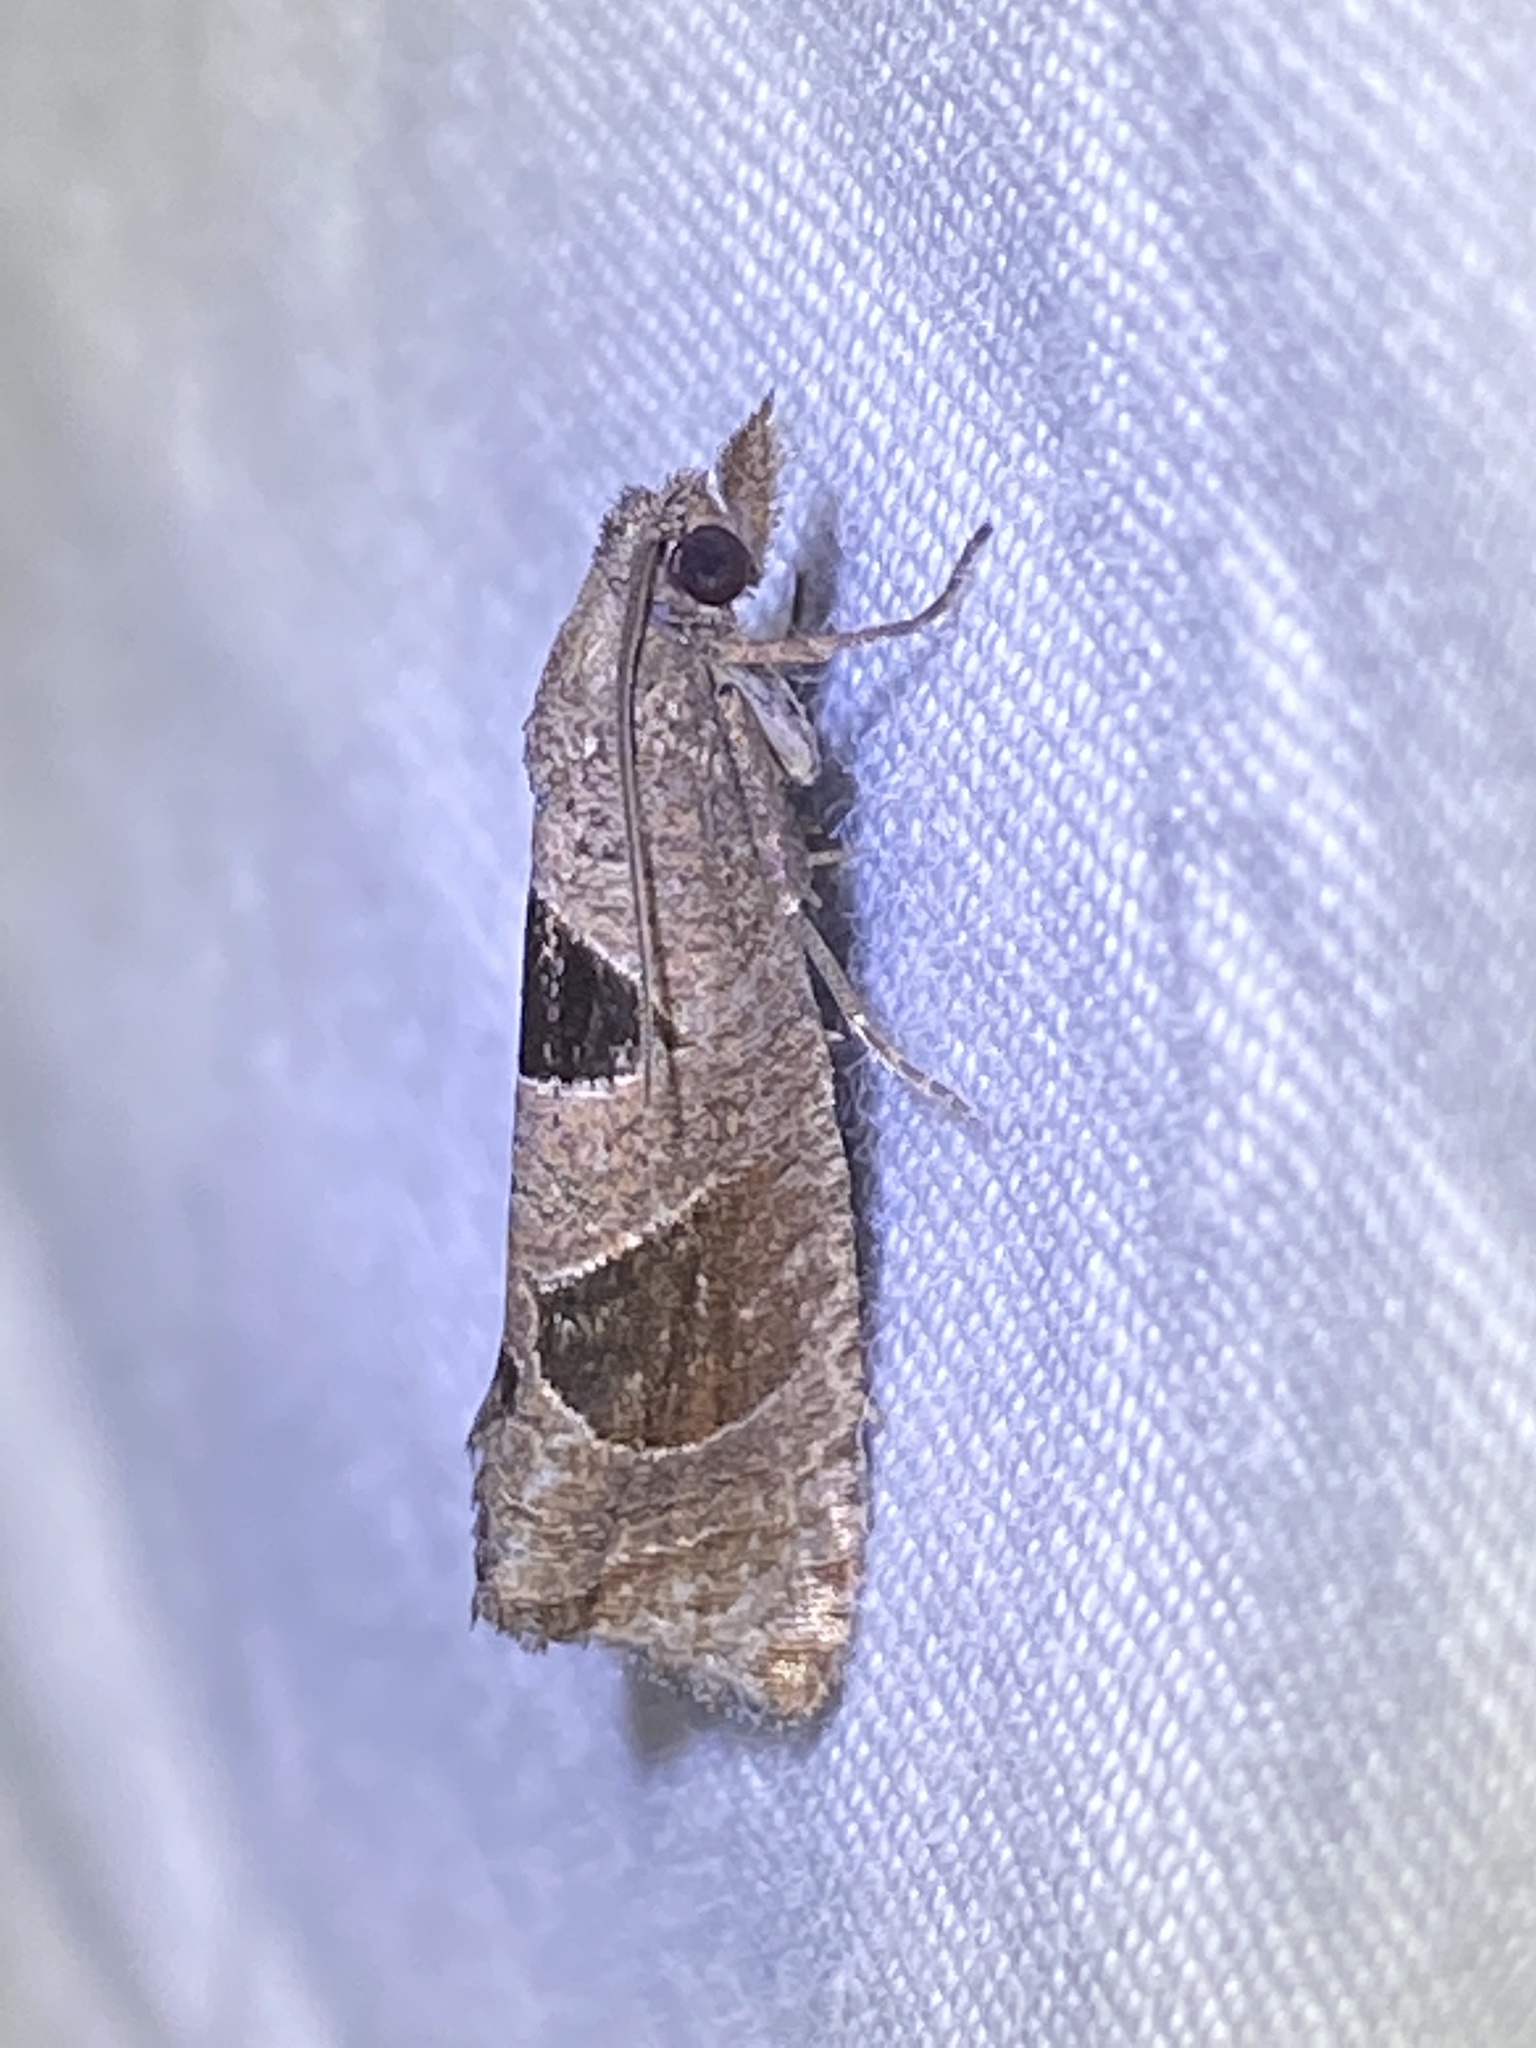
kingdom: Animalia
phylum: Arthropoda
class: Insecta
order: Lepidoptera
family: Tortricidae
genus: Pelochrista
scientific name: Pelochrista dorsisignatana
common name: Triangle-backed pelochrista moth
